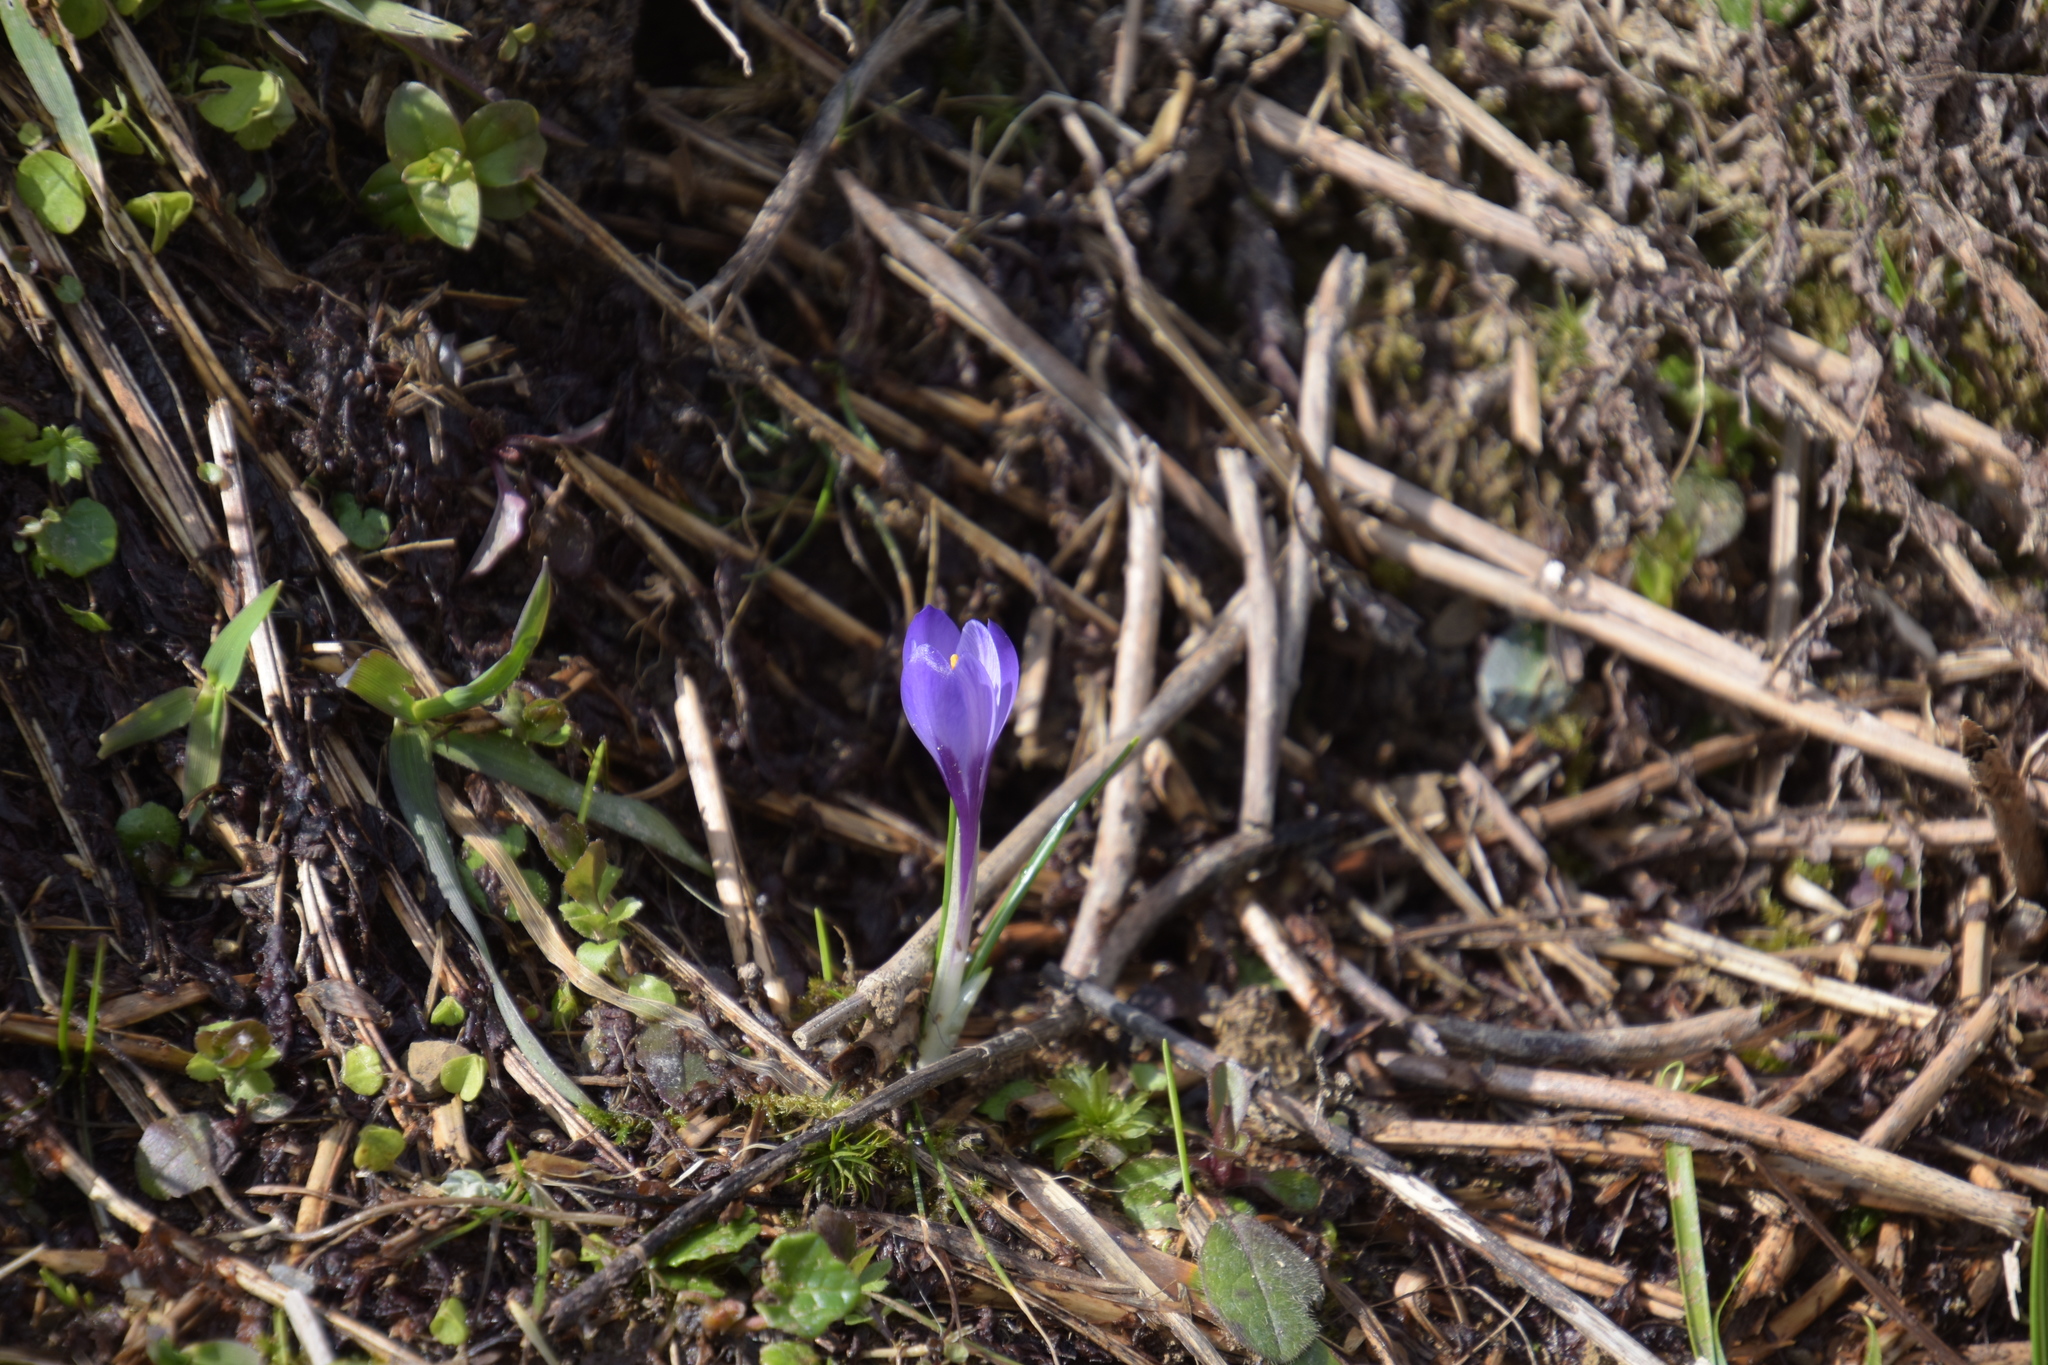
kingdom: Plantae
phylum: Tracheophyta
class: Liliopsida
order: Asparagales
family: Iridaceae
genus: Crocus
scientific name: Crocus vernus
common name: Spring crocus
